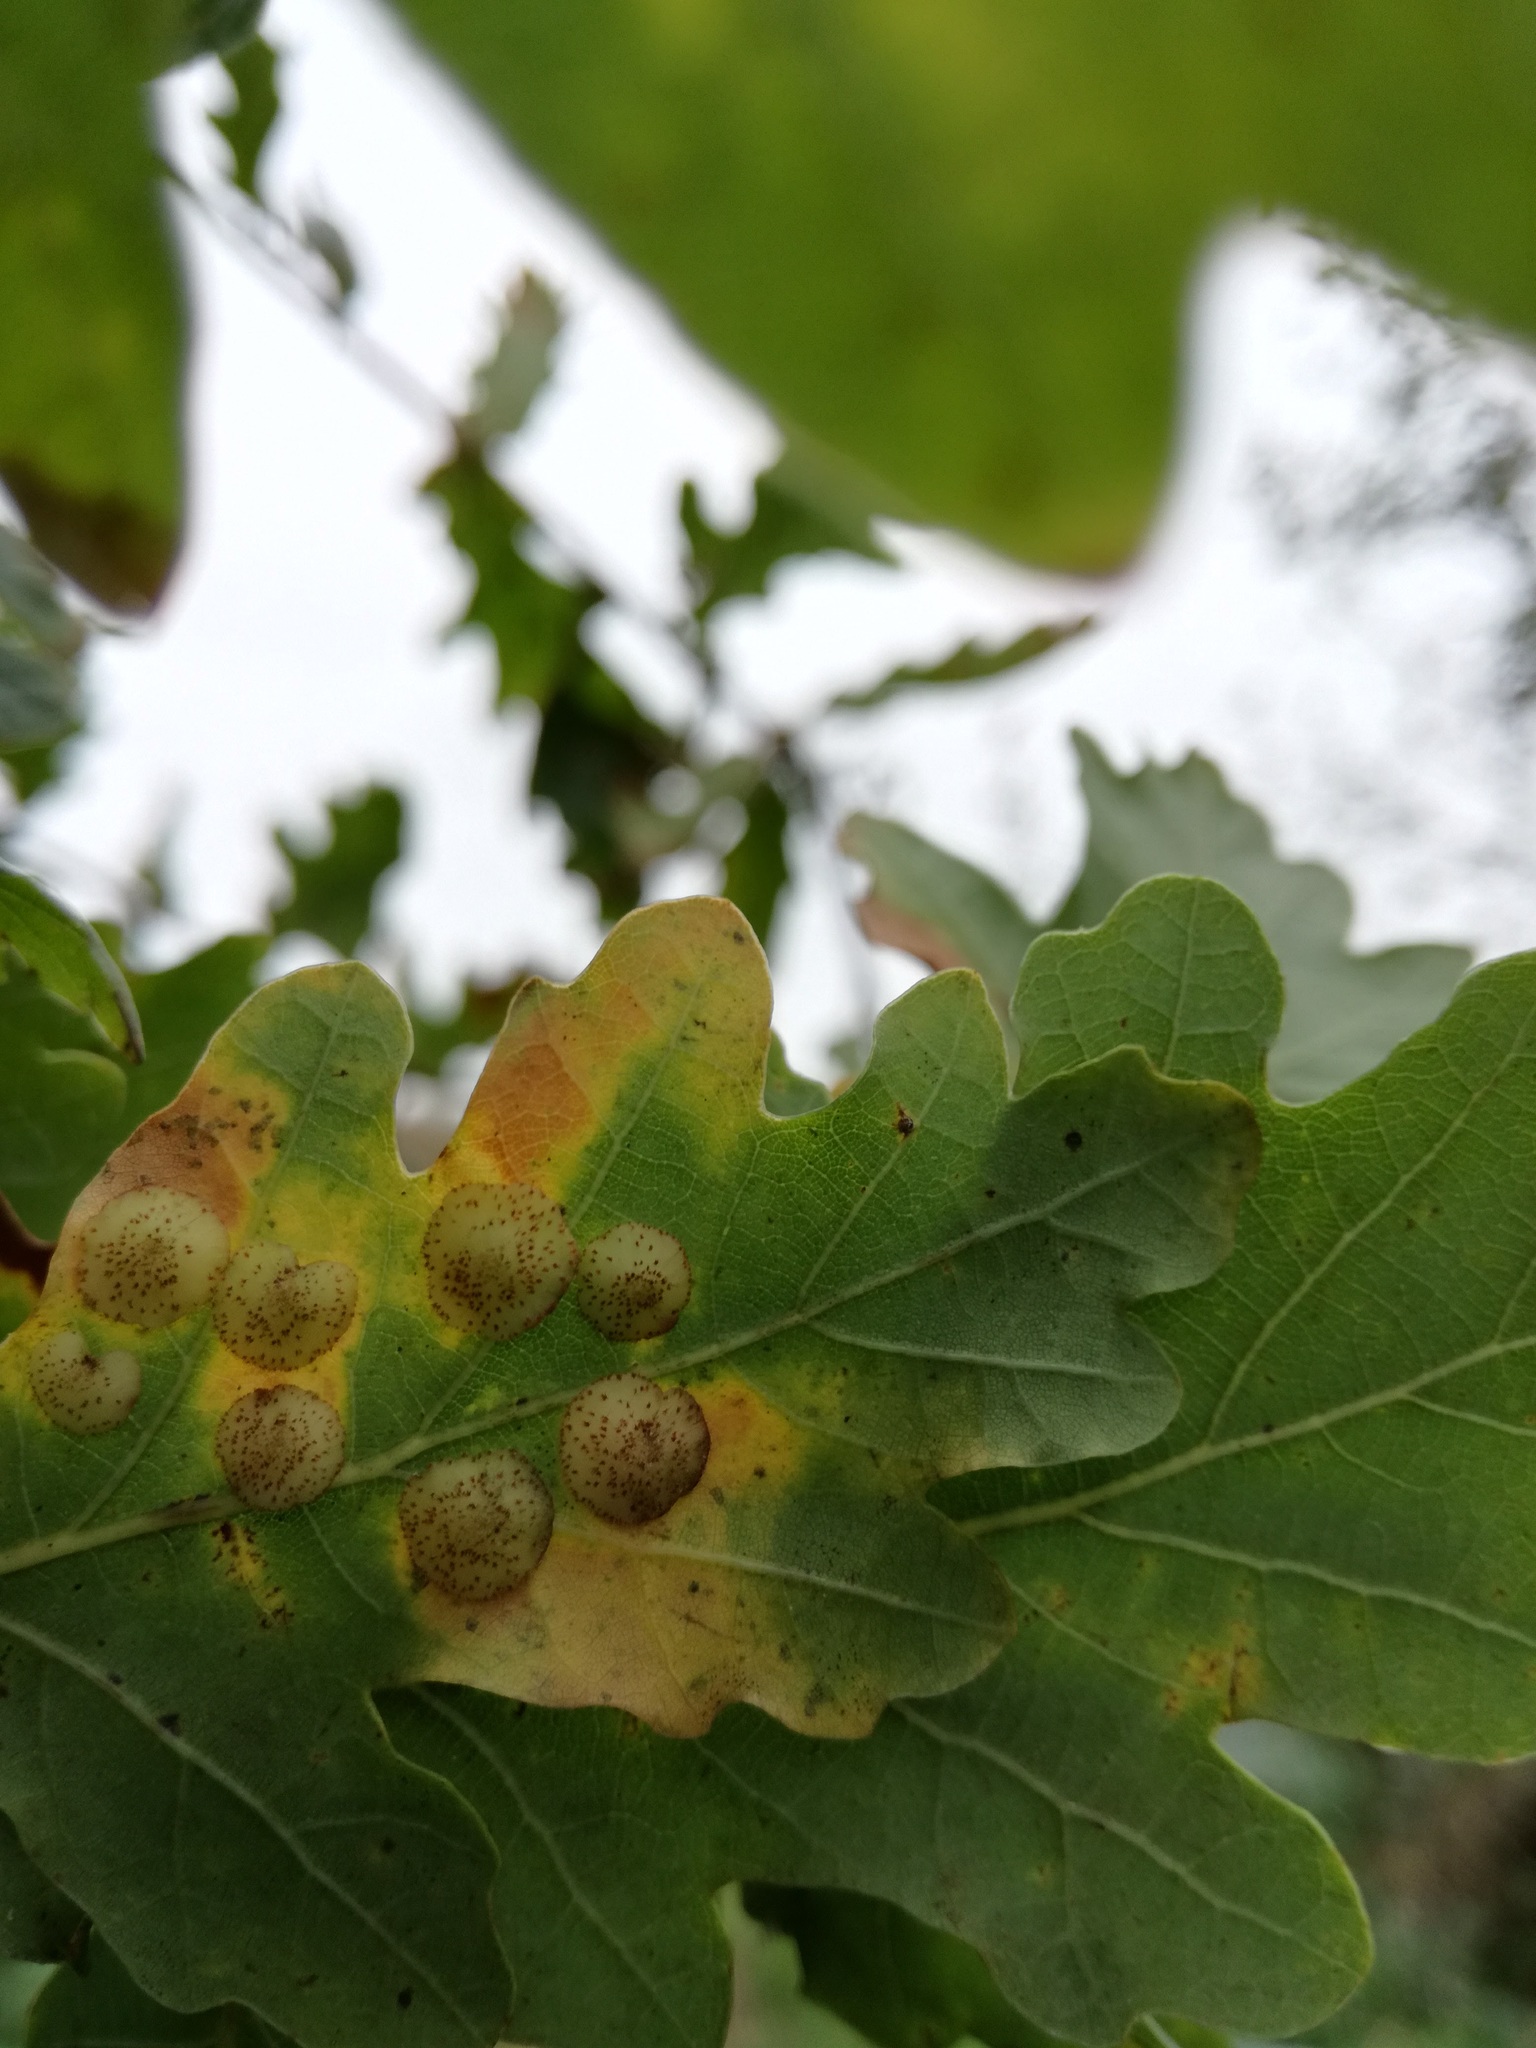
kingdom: Animalia
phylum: Arthropoda
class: Insecta
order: Hymenoptera
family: Cynipidae
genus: Neuroterus
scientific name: Neuroterus quercusbaccarum
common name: Common spangle gall
